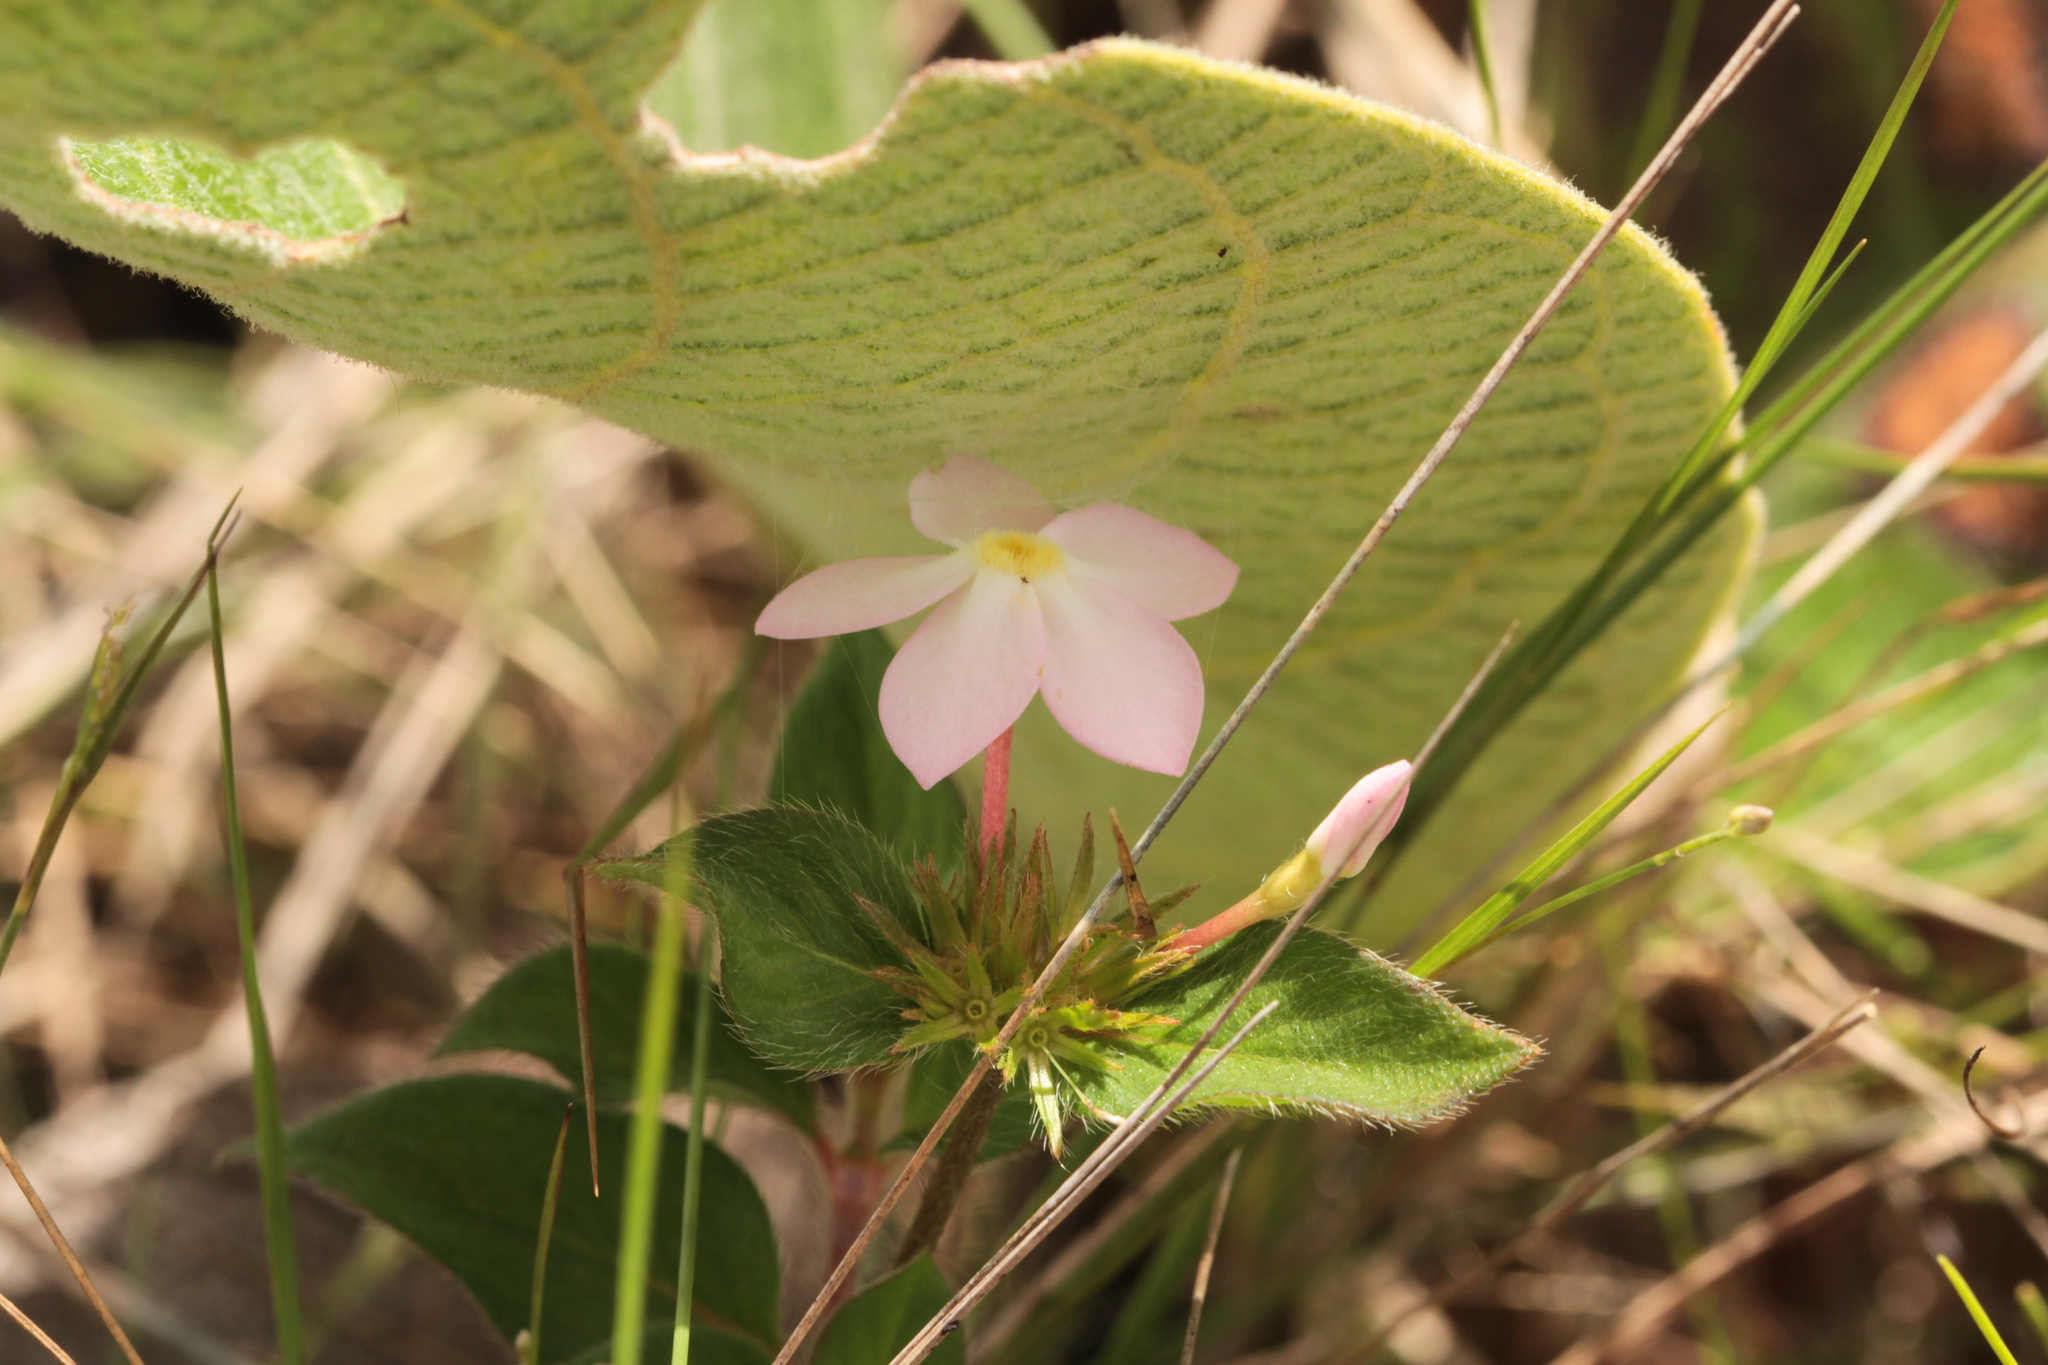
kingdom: Plantae
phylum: Tracheophyta
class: Magnoliopsida
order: Gentianales
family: Rubiaceae
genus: Sipanea
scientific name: Sipanea pratensis
